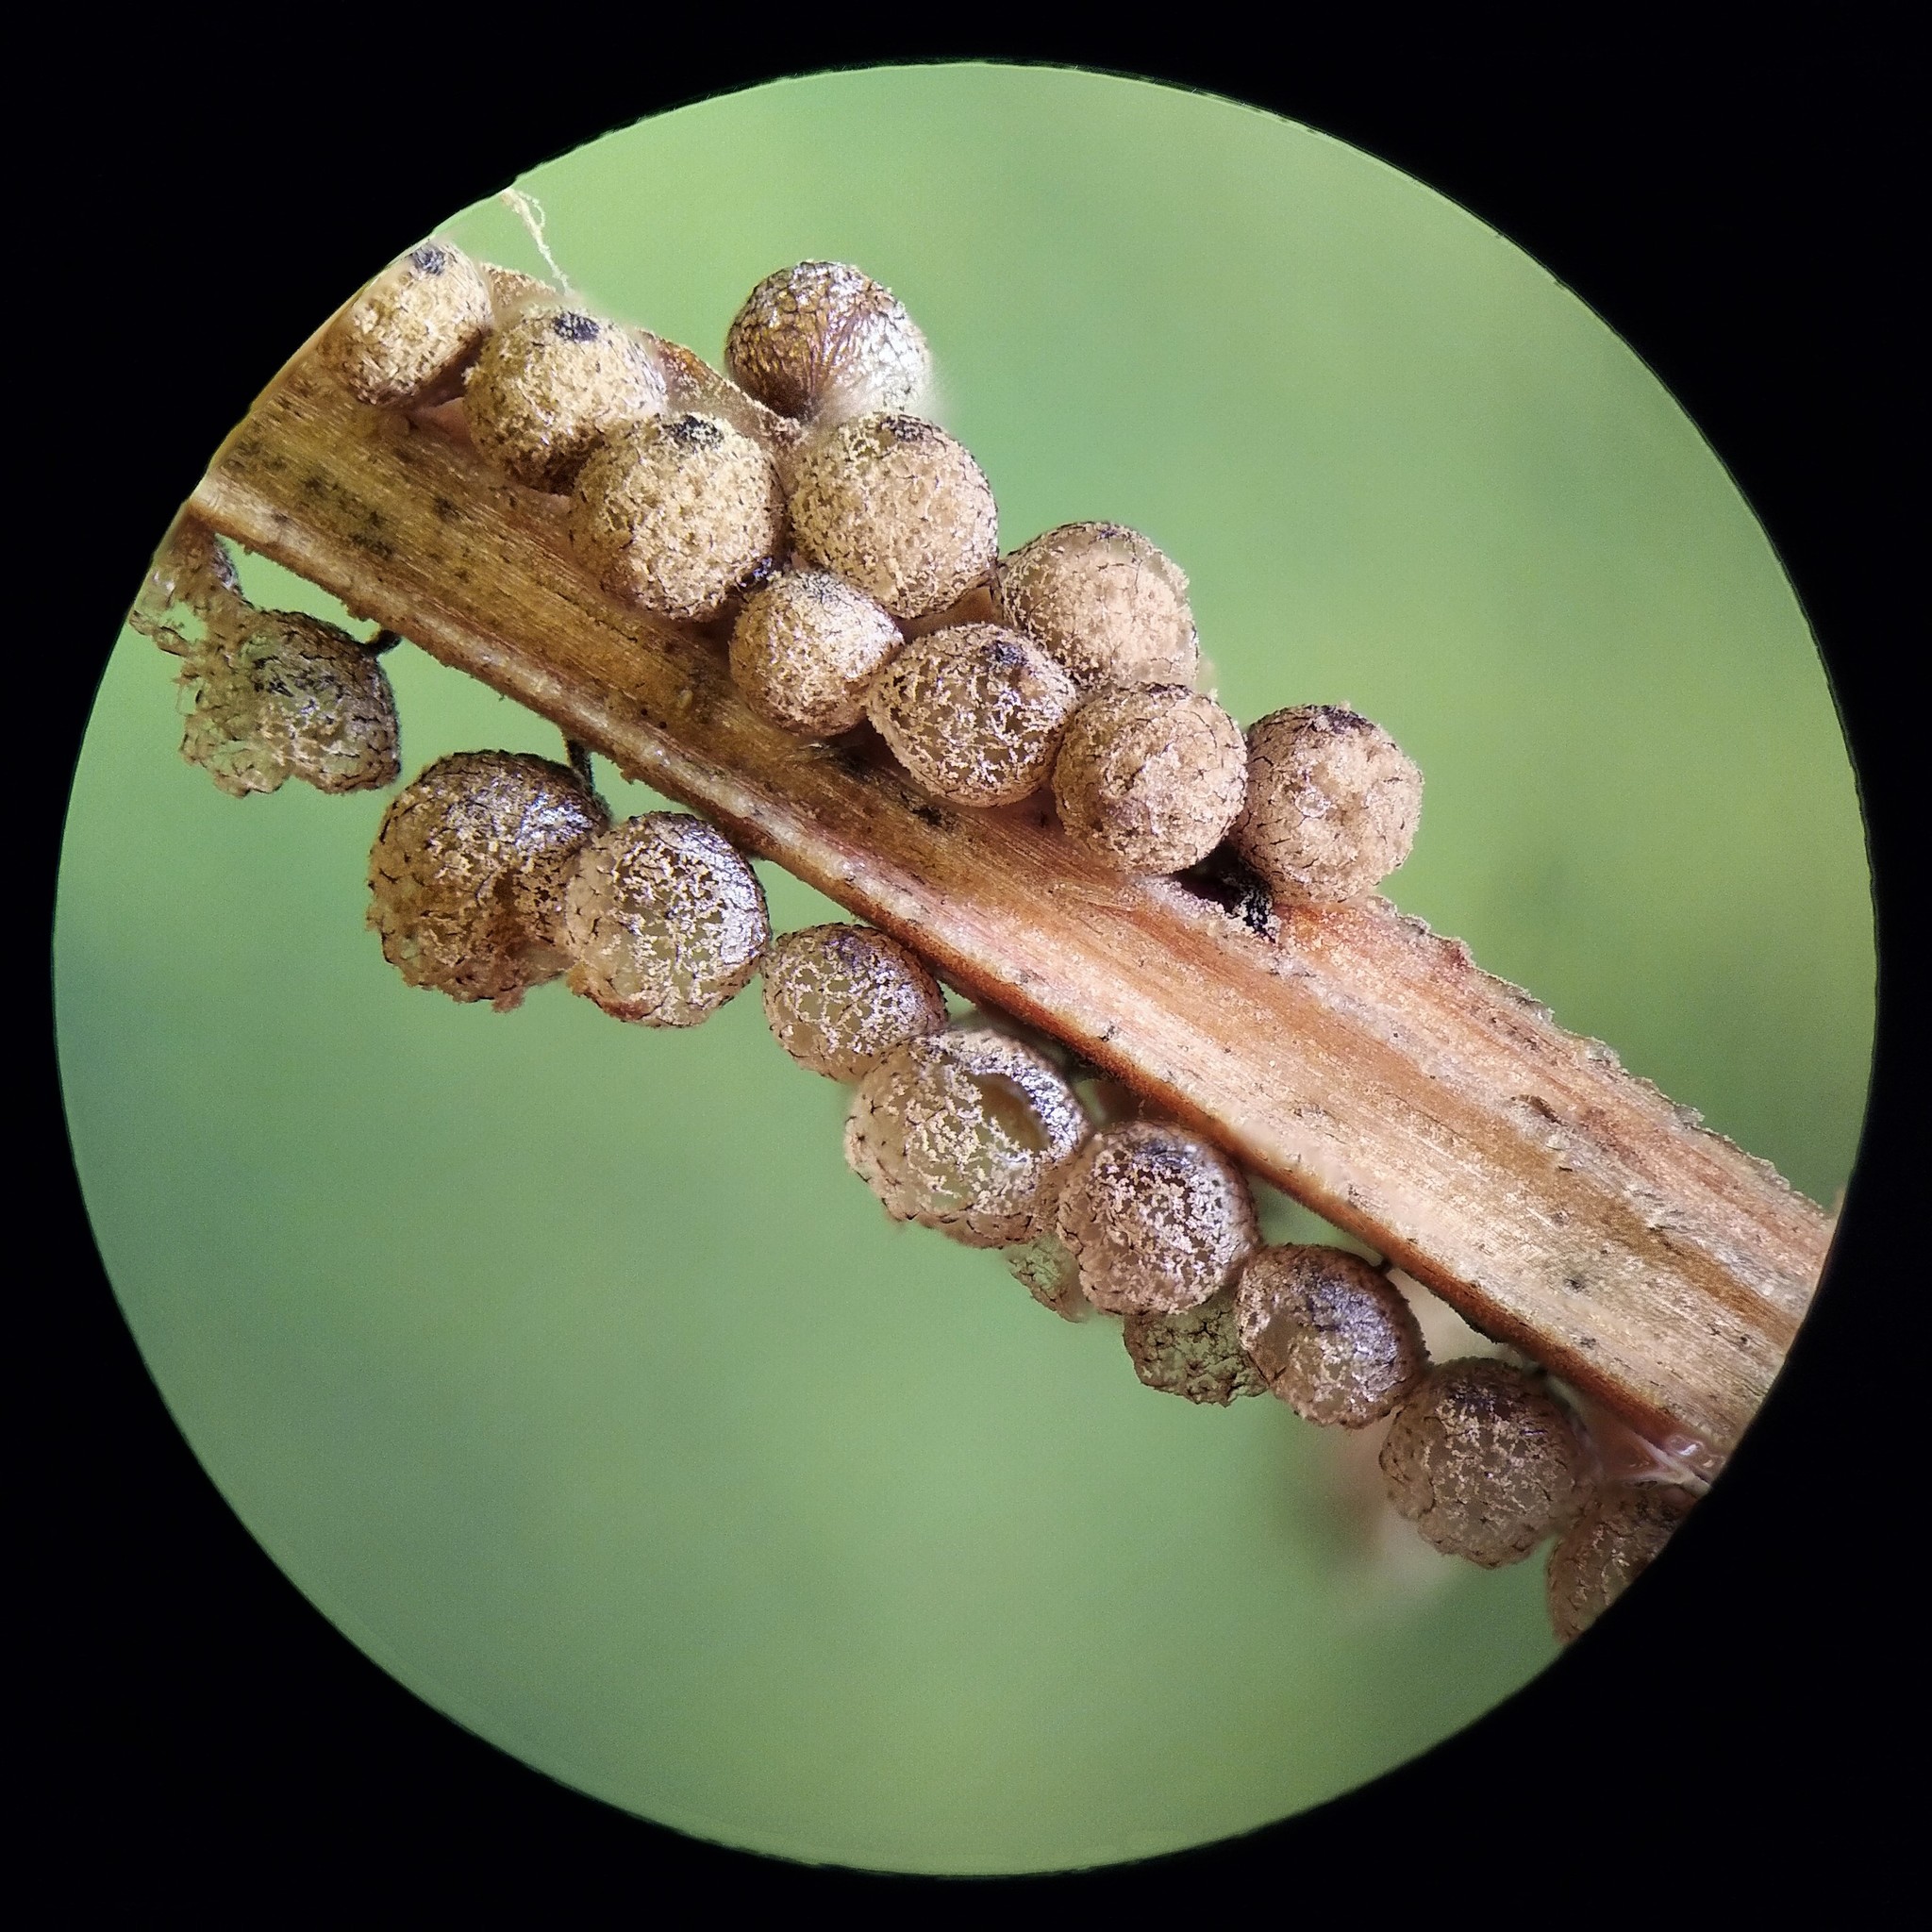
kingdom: Protozoa
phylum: Mycetozoa
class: Myxomycetes
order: Cribrariales
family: Cribrariaceae
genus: Cribraria
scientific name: Cribraria argillacea
